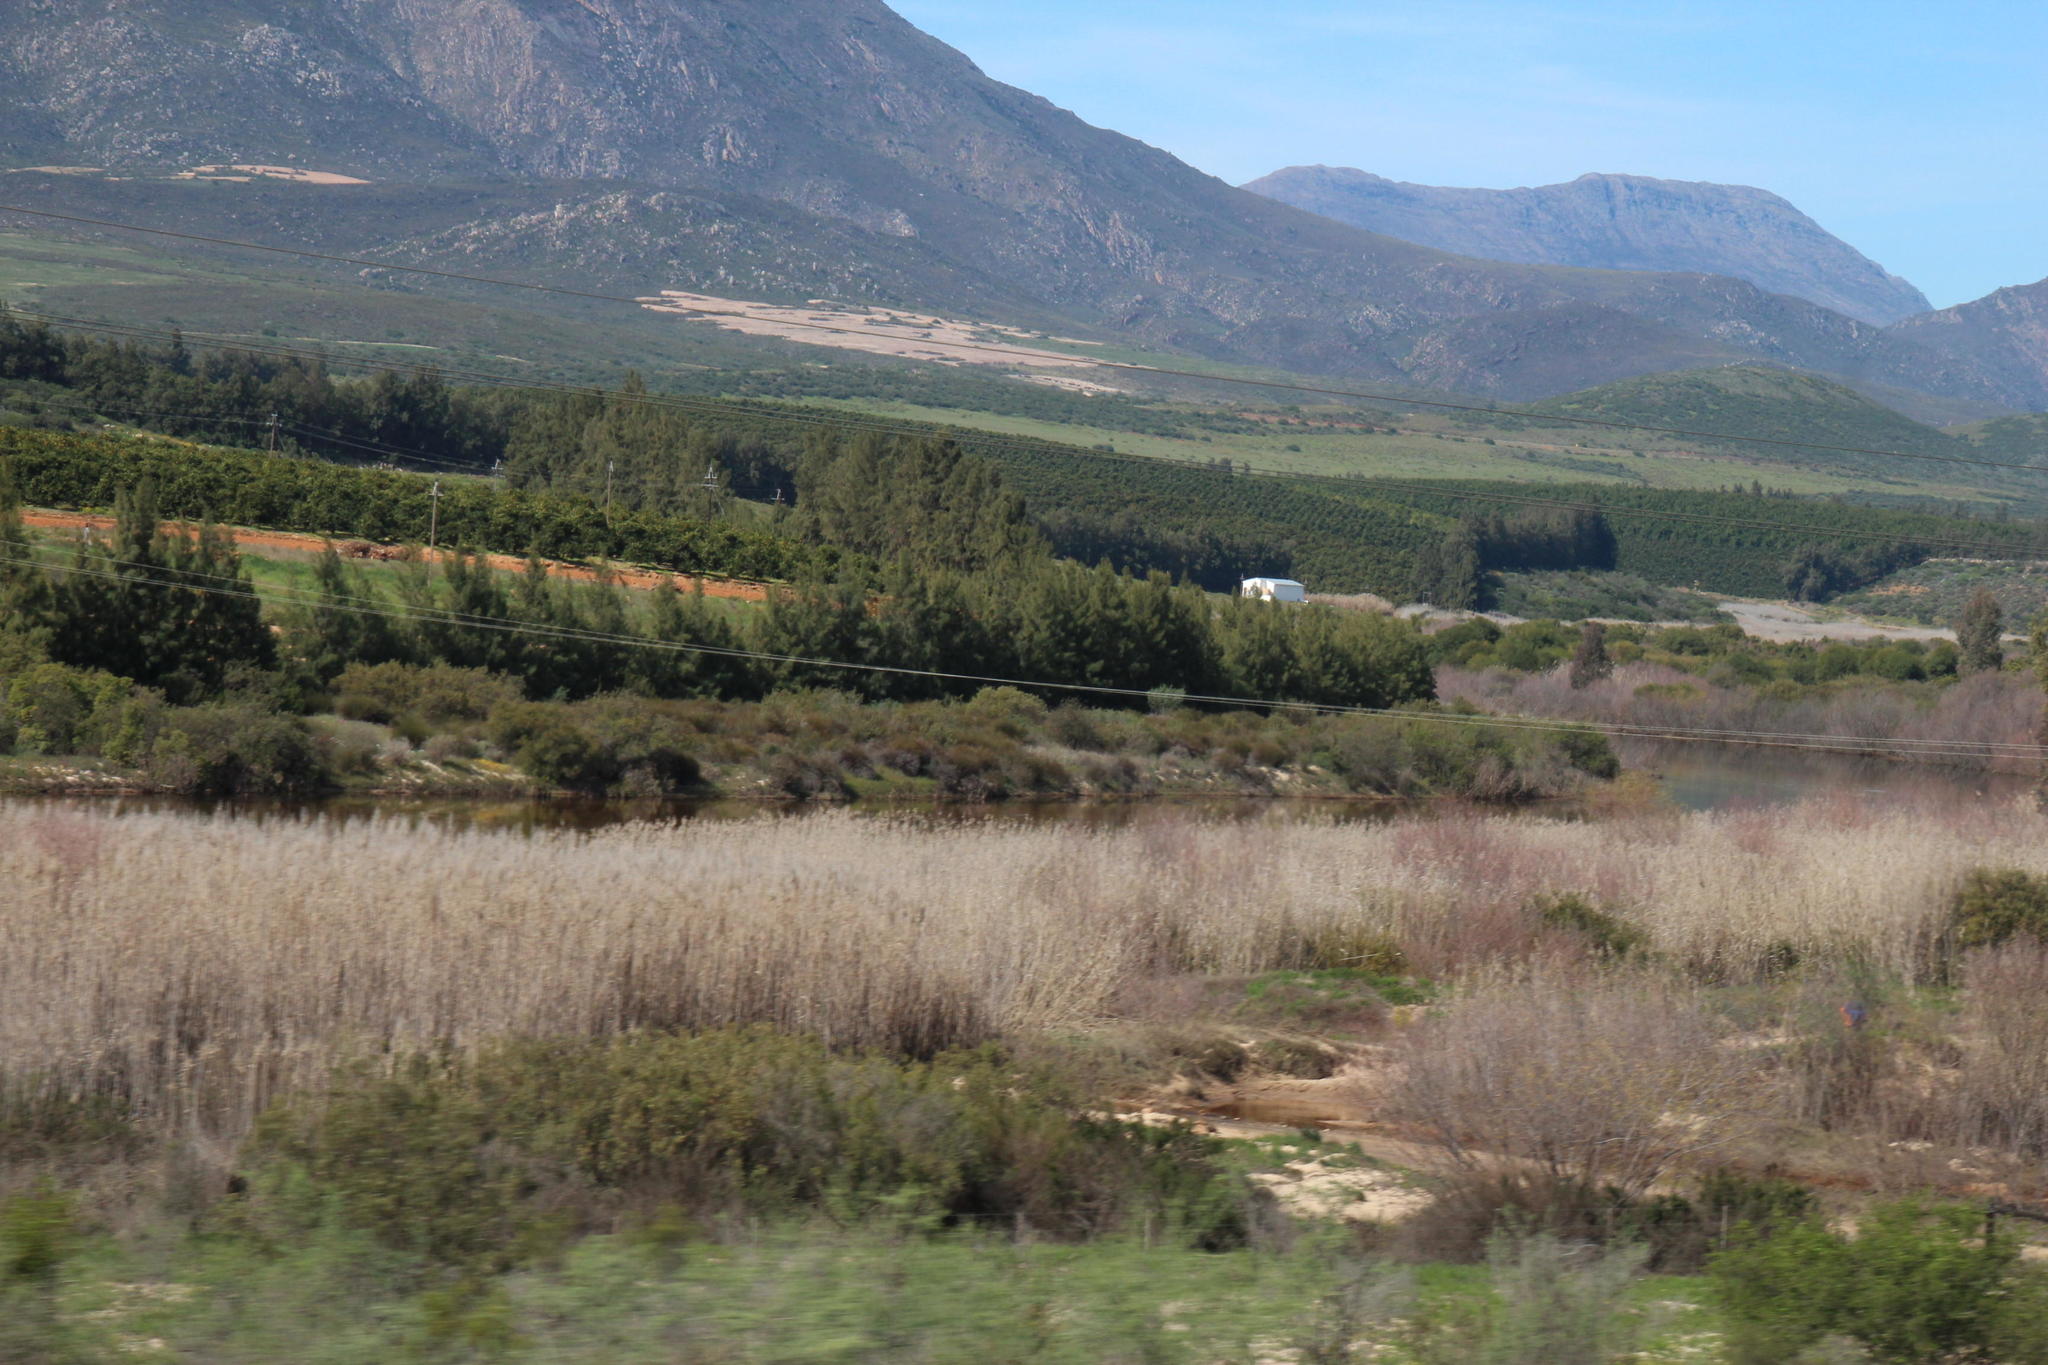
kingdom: Plantae
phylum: Tracheophyta
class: Liliopsida
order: Poales
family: Poaceae
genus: Phragmites
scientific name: Phragmites australis
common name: Common reed
